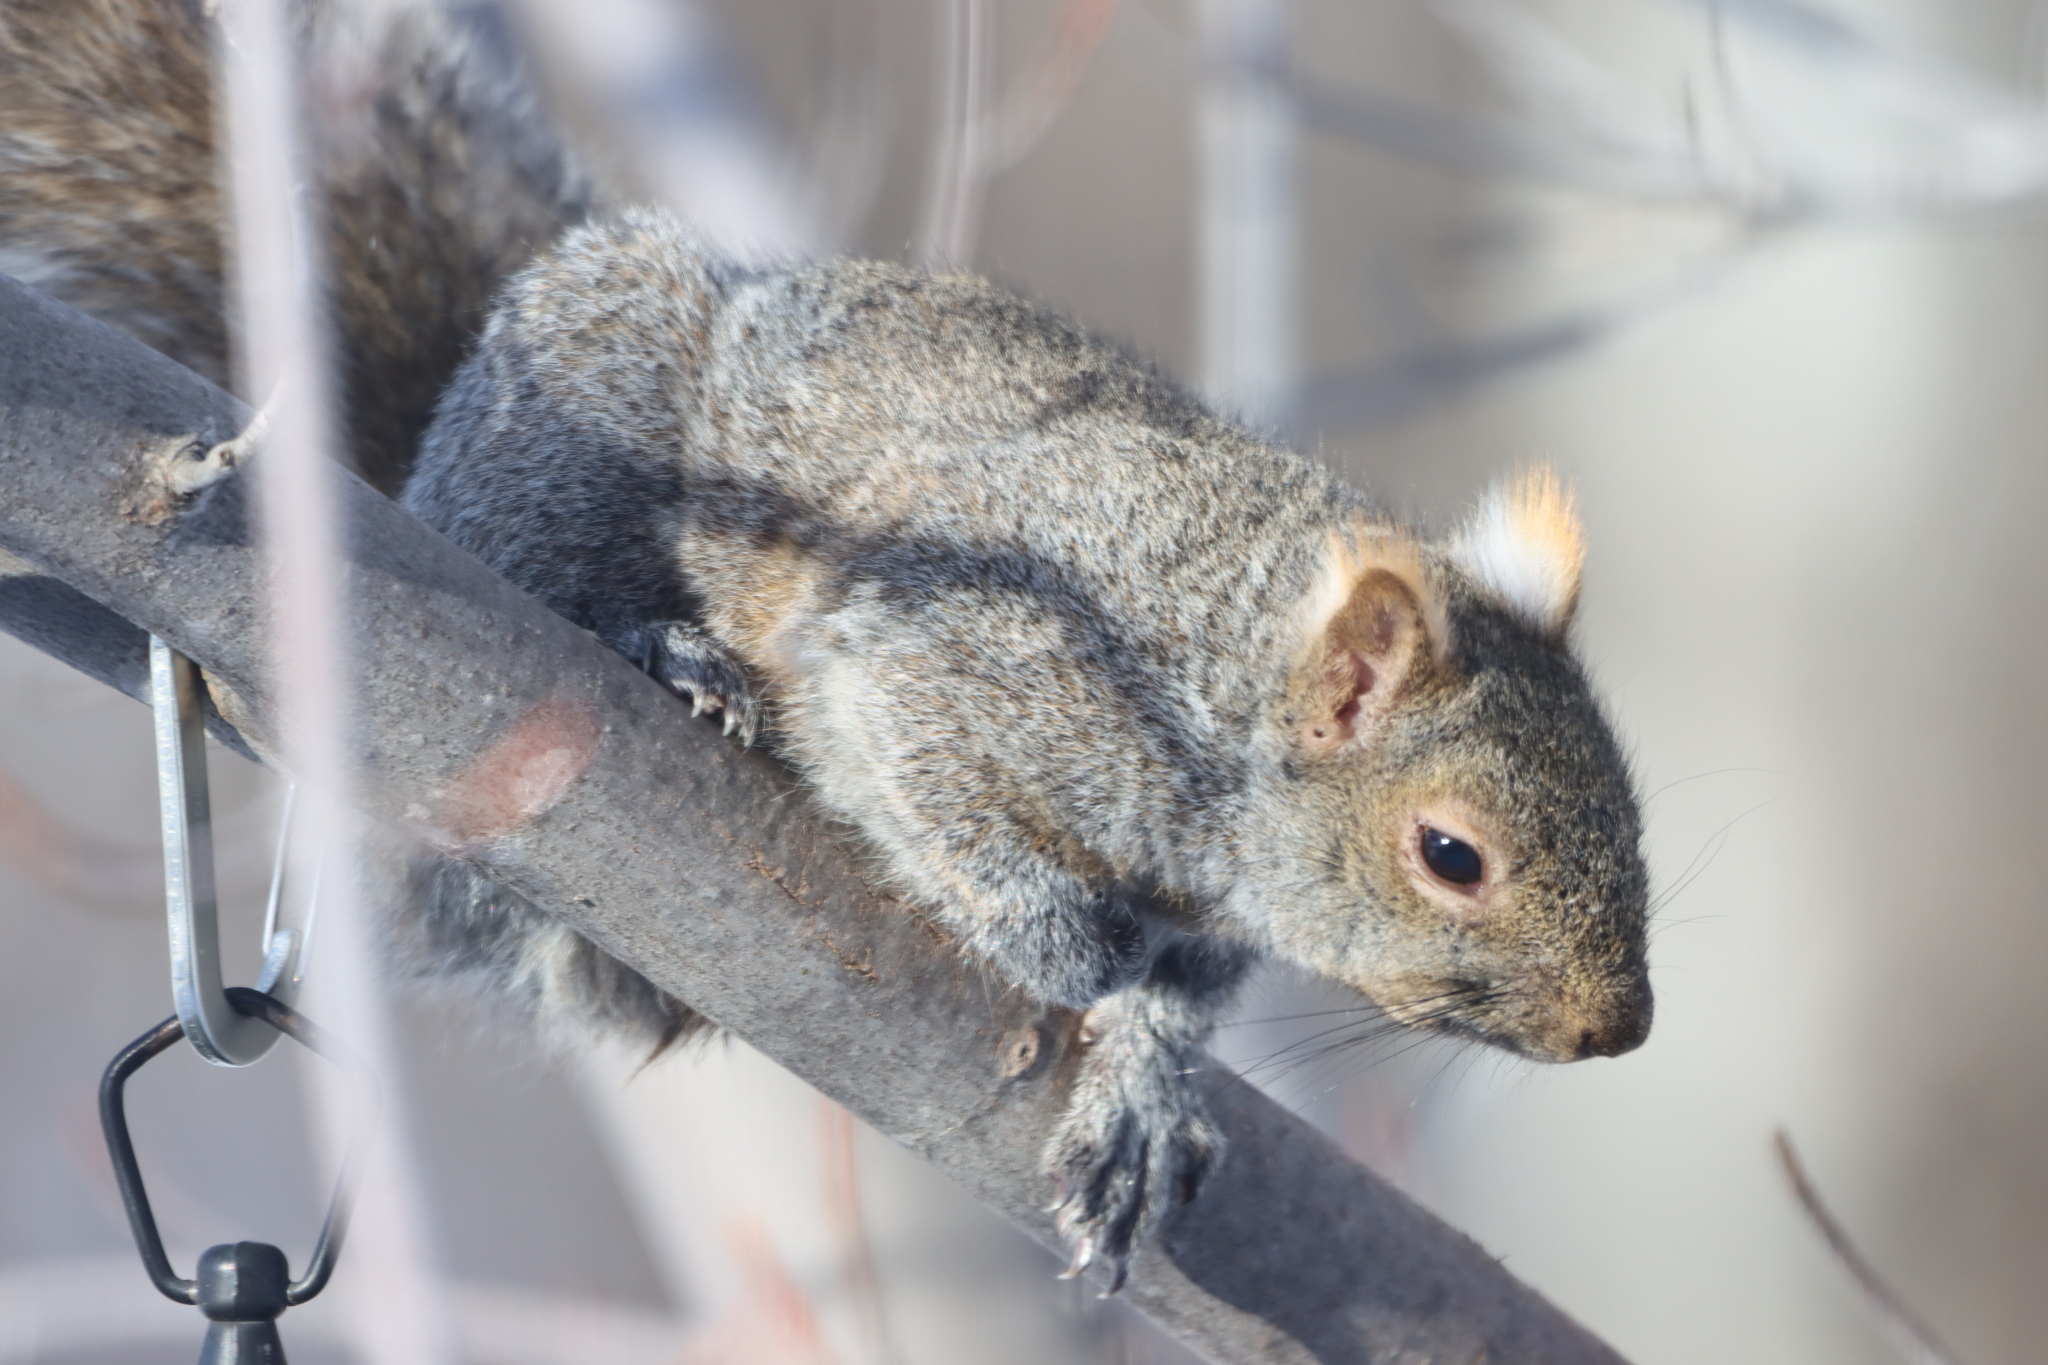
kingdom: Animalia
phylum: Chordata
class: Mammalia
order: Rodentia
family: Sciuridae
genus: Sciurus
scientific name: Sciurus carolinensis
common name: Eastern gray squirrel
